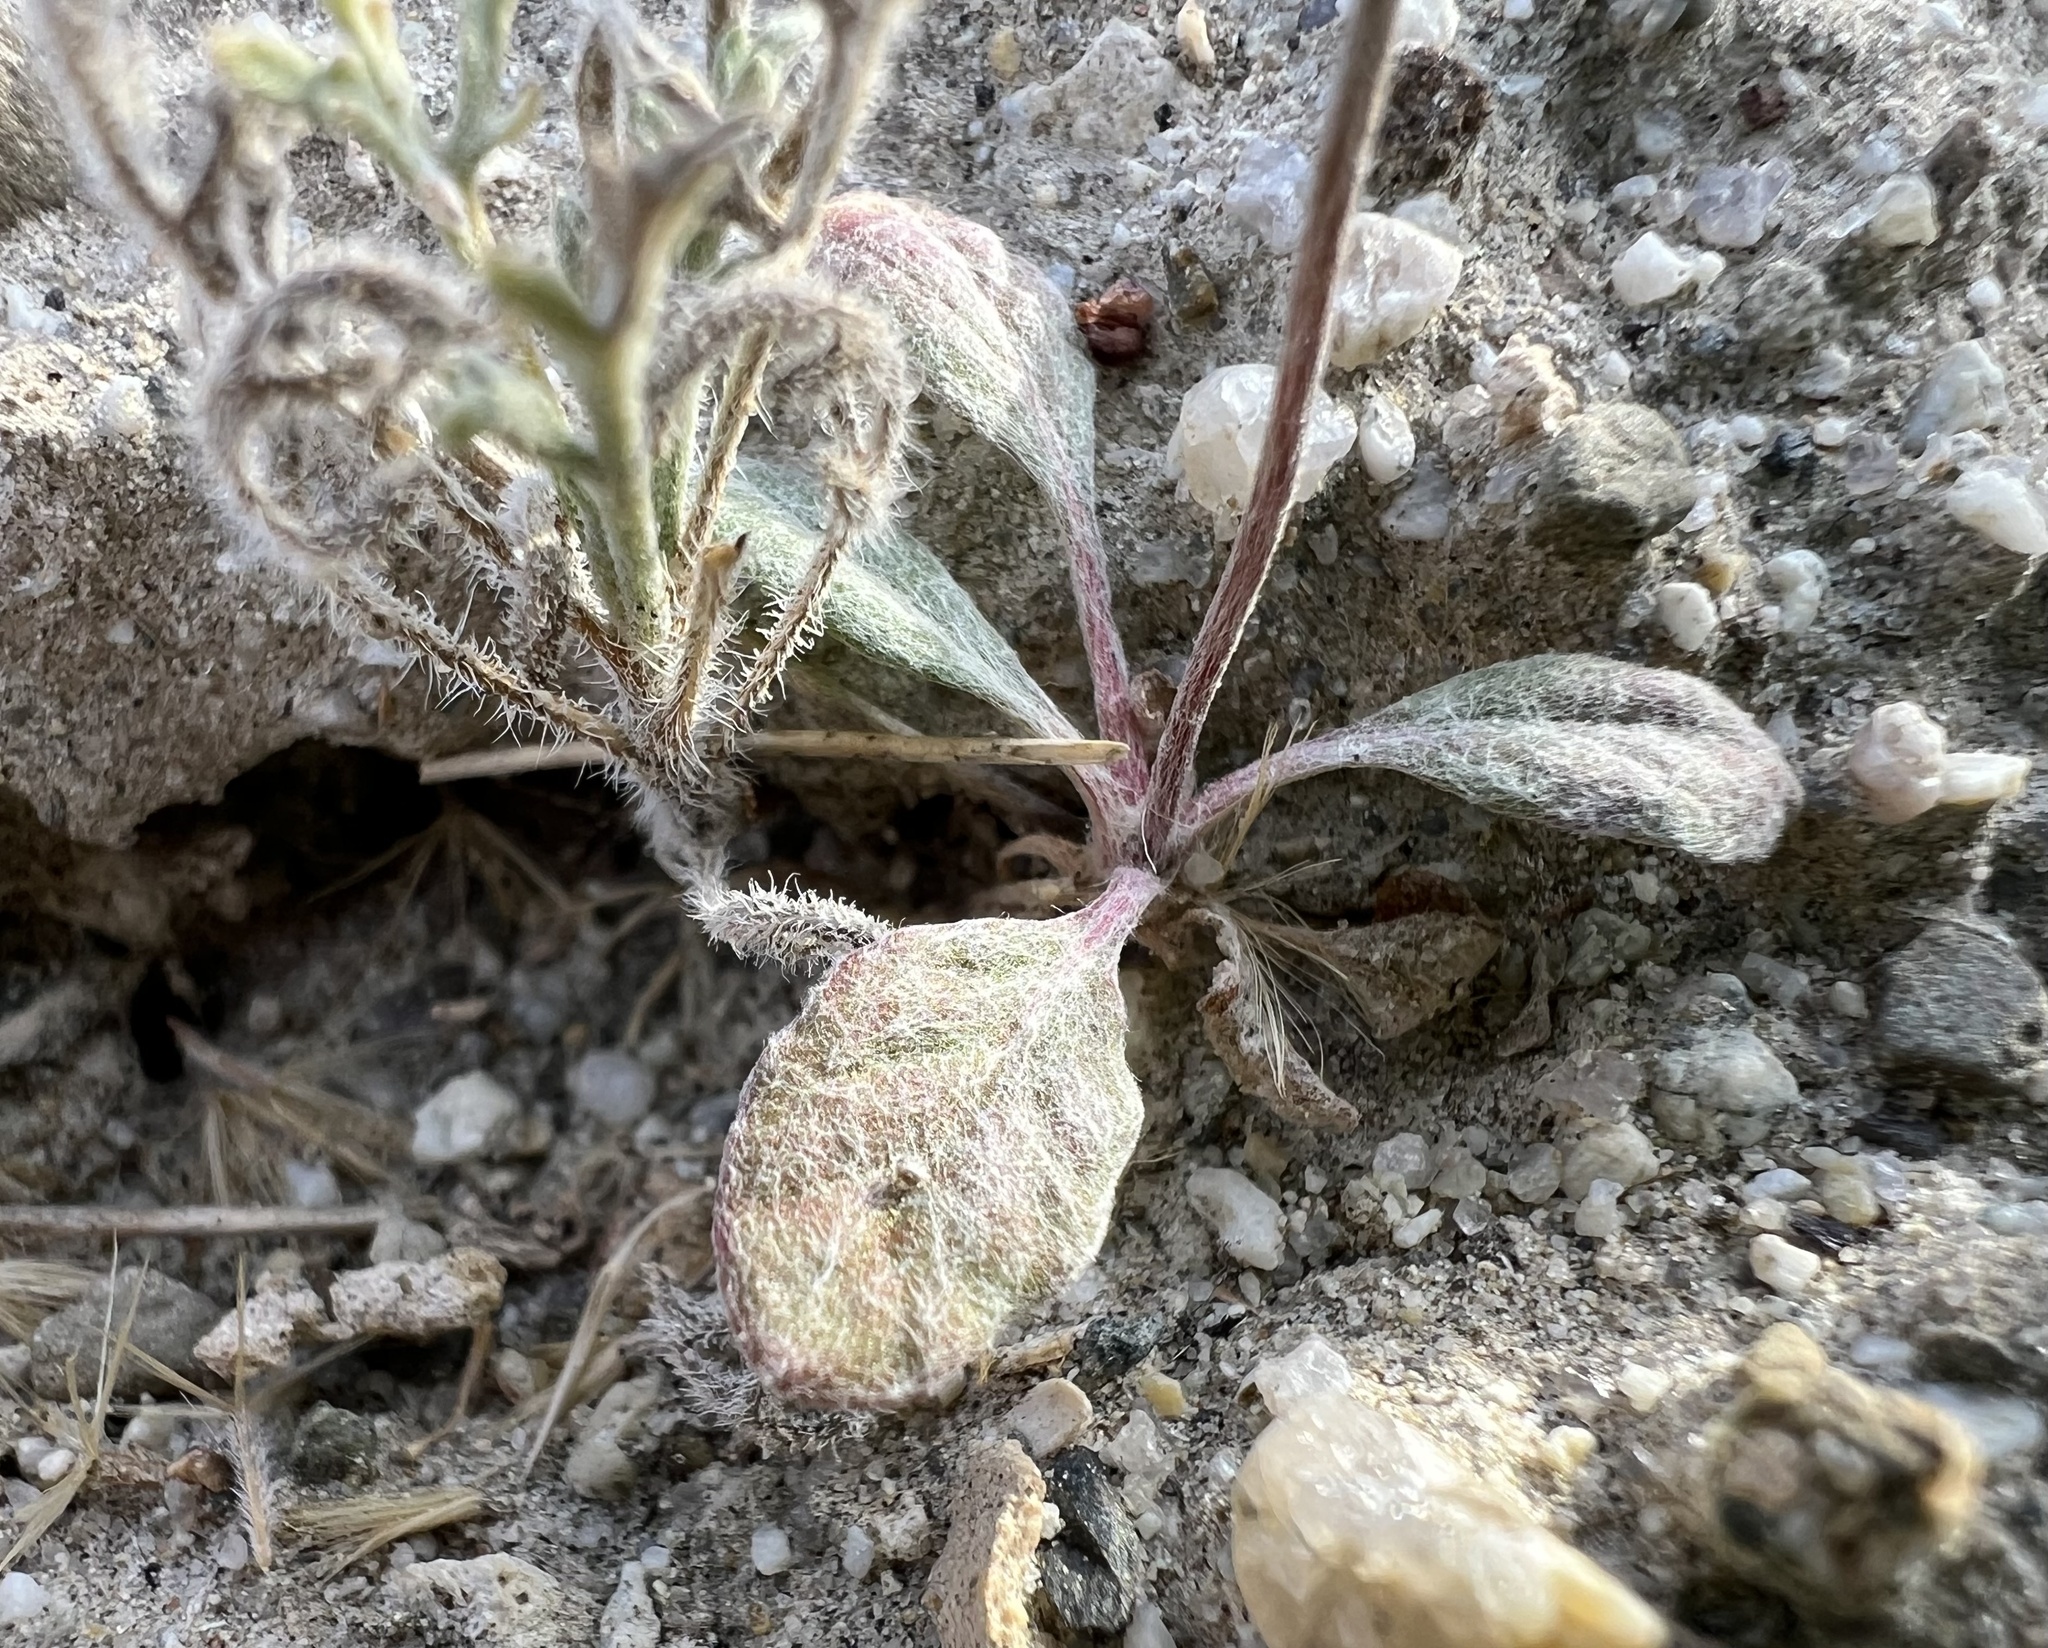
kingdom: Plantae
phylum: Tracheophyta
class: Magnoliopsida
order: Caryophyllales
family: Polygonaceae
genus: Eriogonum
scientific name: Eriogonum maculatum
